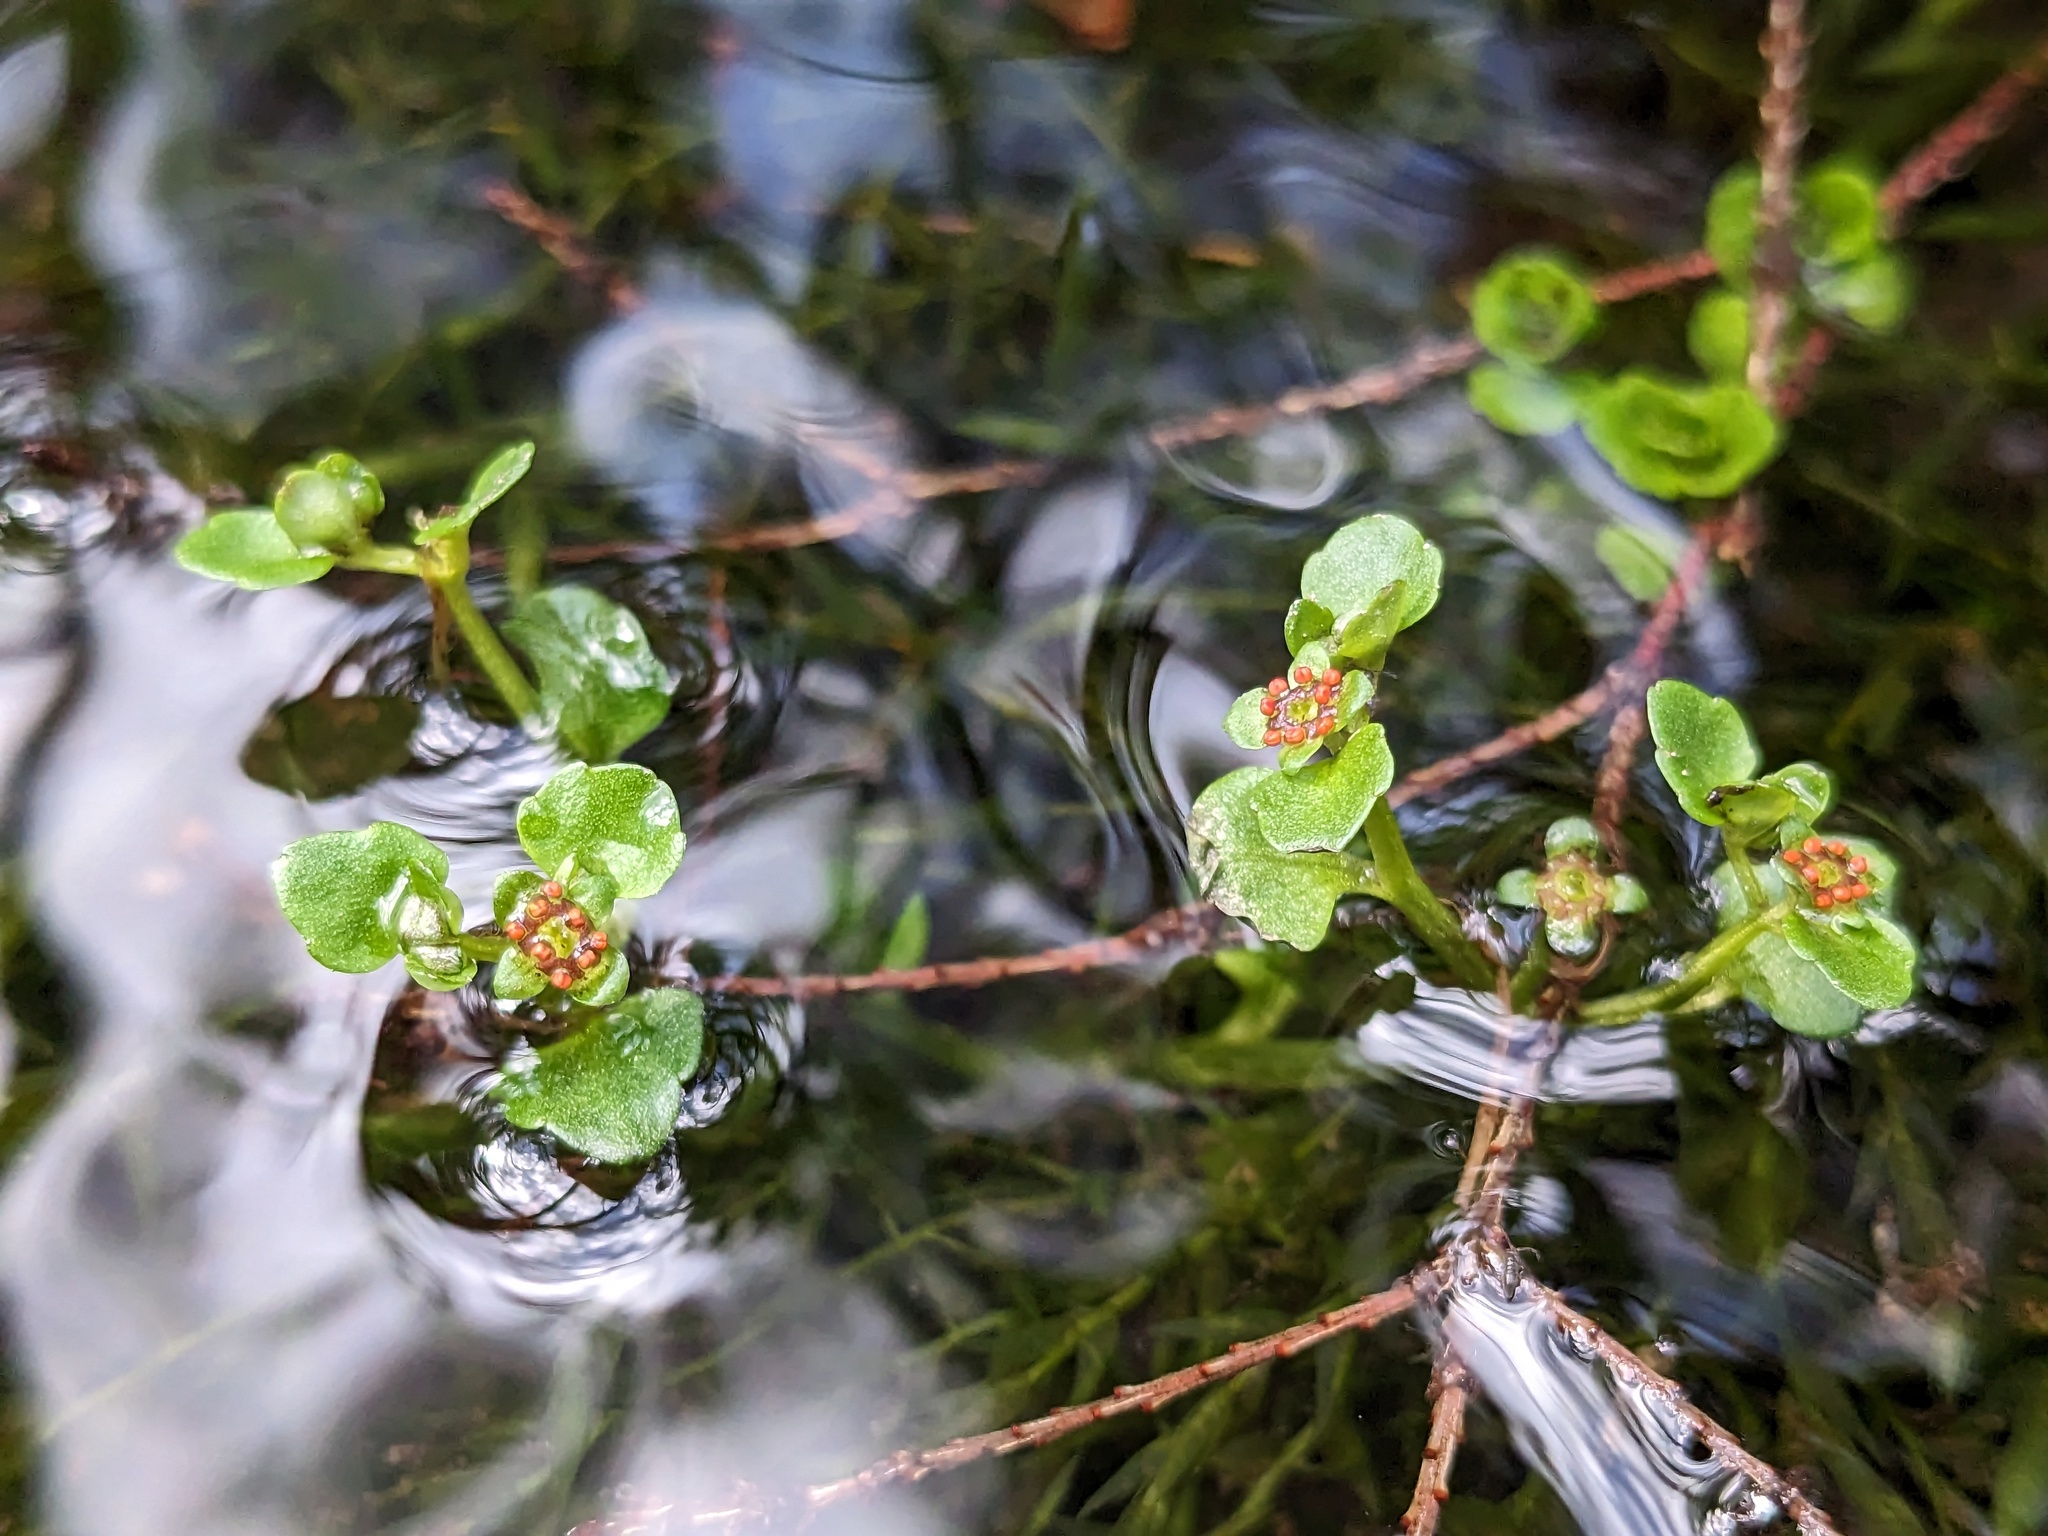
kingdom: Plantae
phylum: Tracheophyta
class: Magnoliopsida
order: Saxifragales
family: Saxifragaceae
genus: Chrysosplenium
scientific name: Chrysosplenium americanum
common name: American golden-saxifrage
